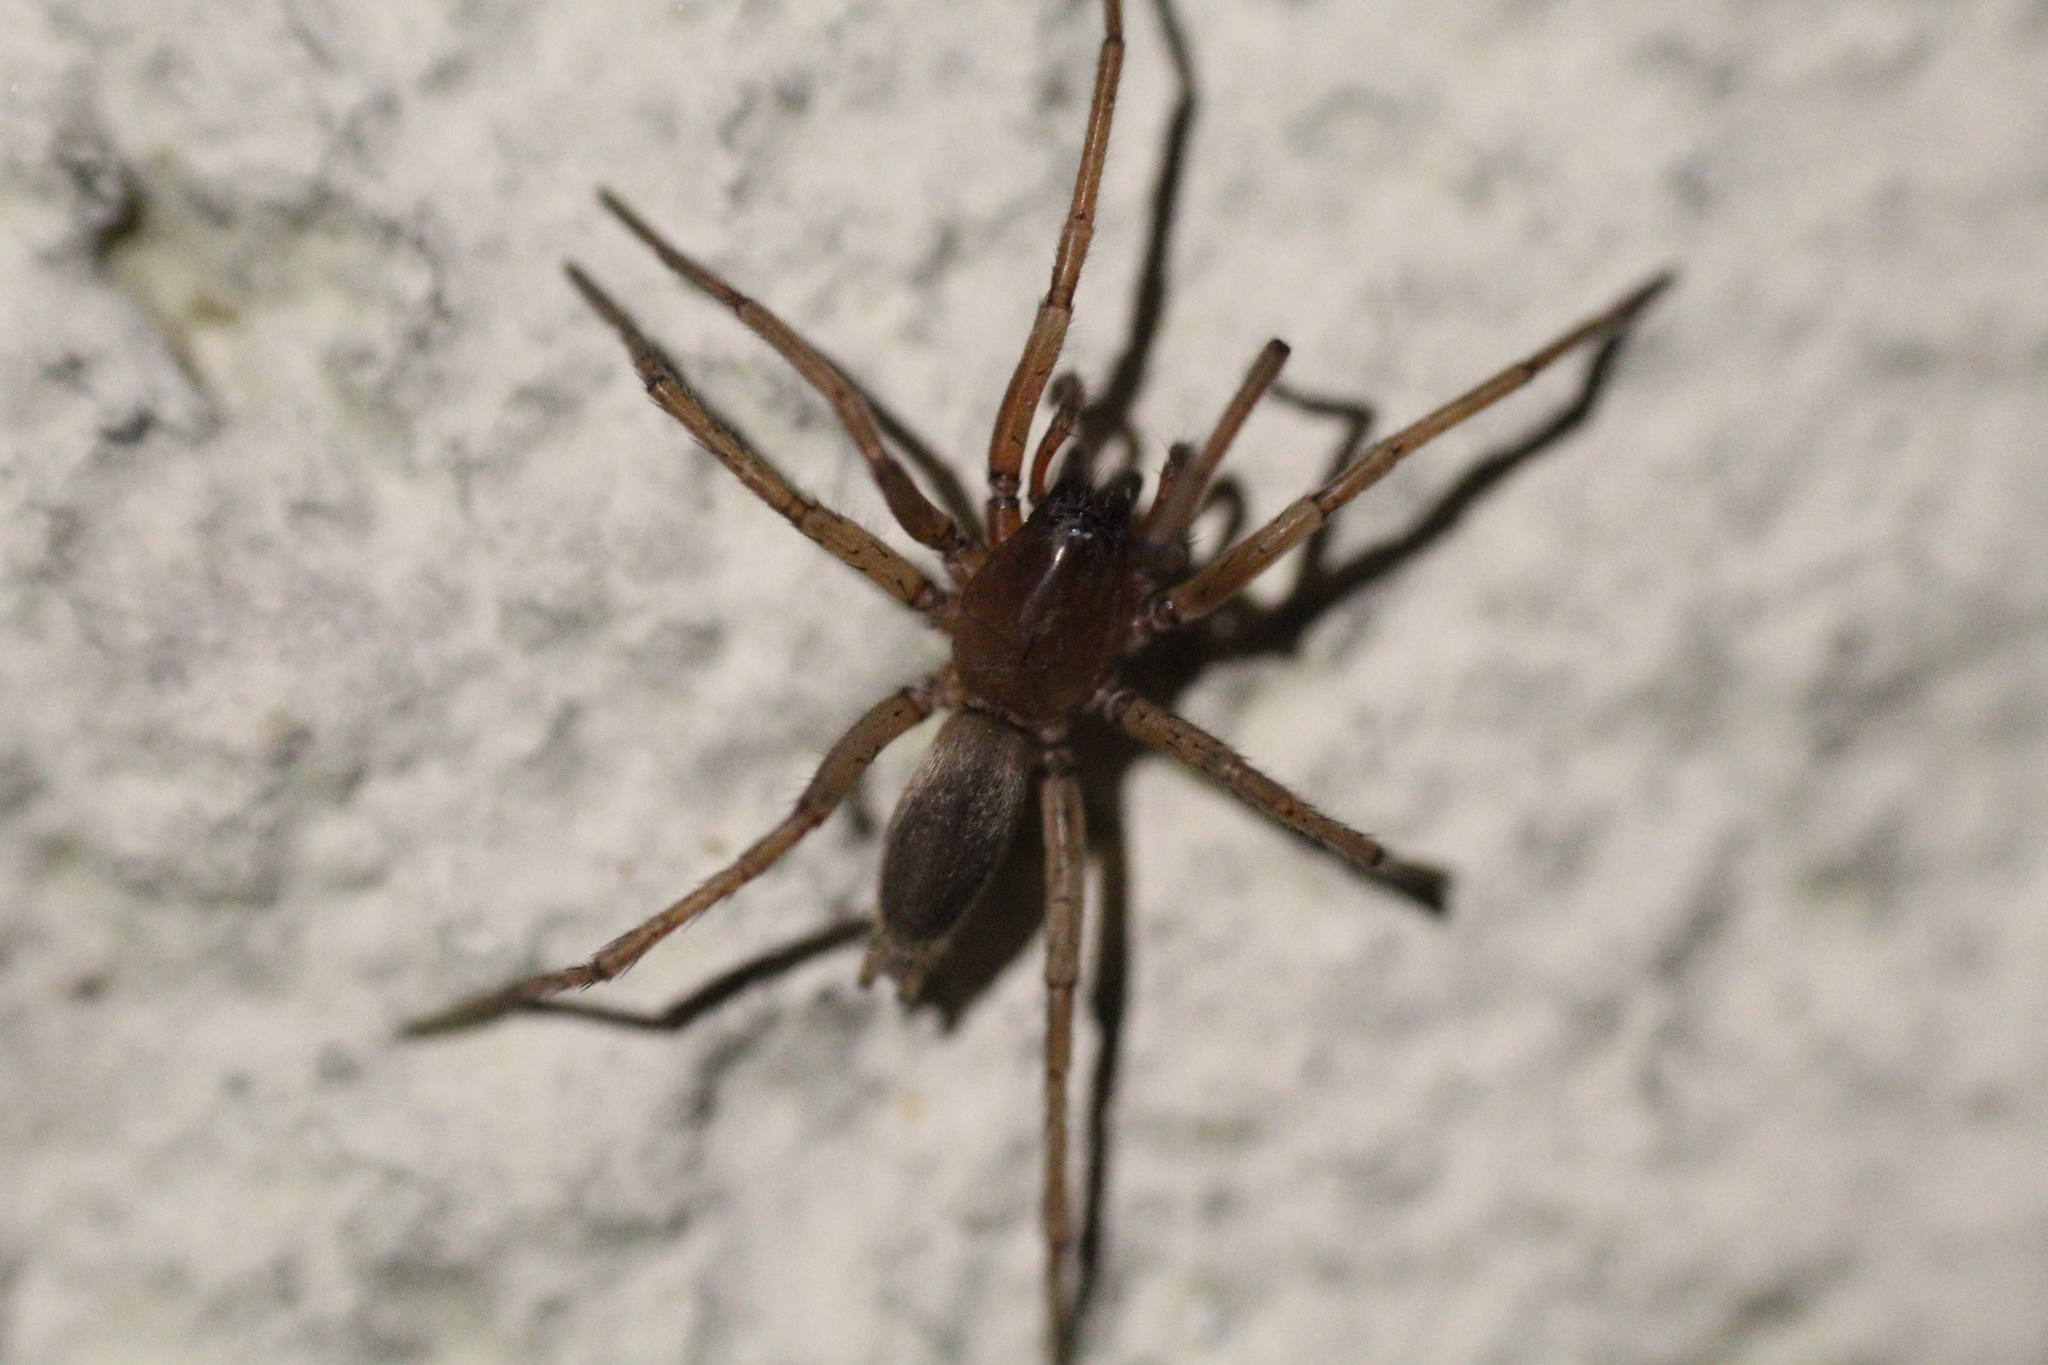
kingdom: Animalia
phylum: Arthropoda
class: Arachnida
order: Araneae
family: Gnaphosidae
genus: Drassodes
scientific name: Drassodes
